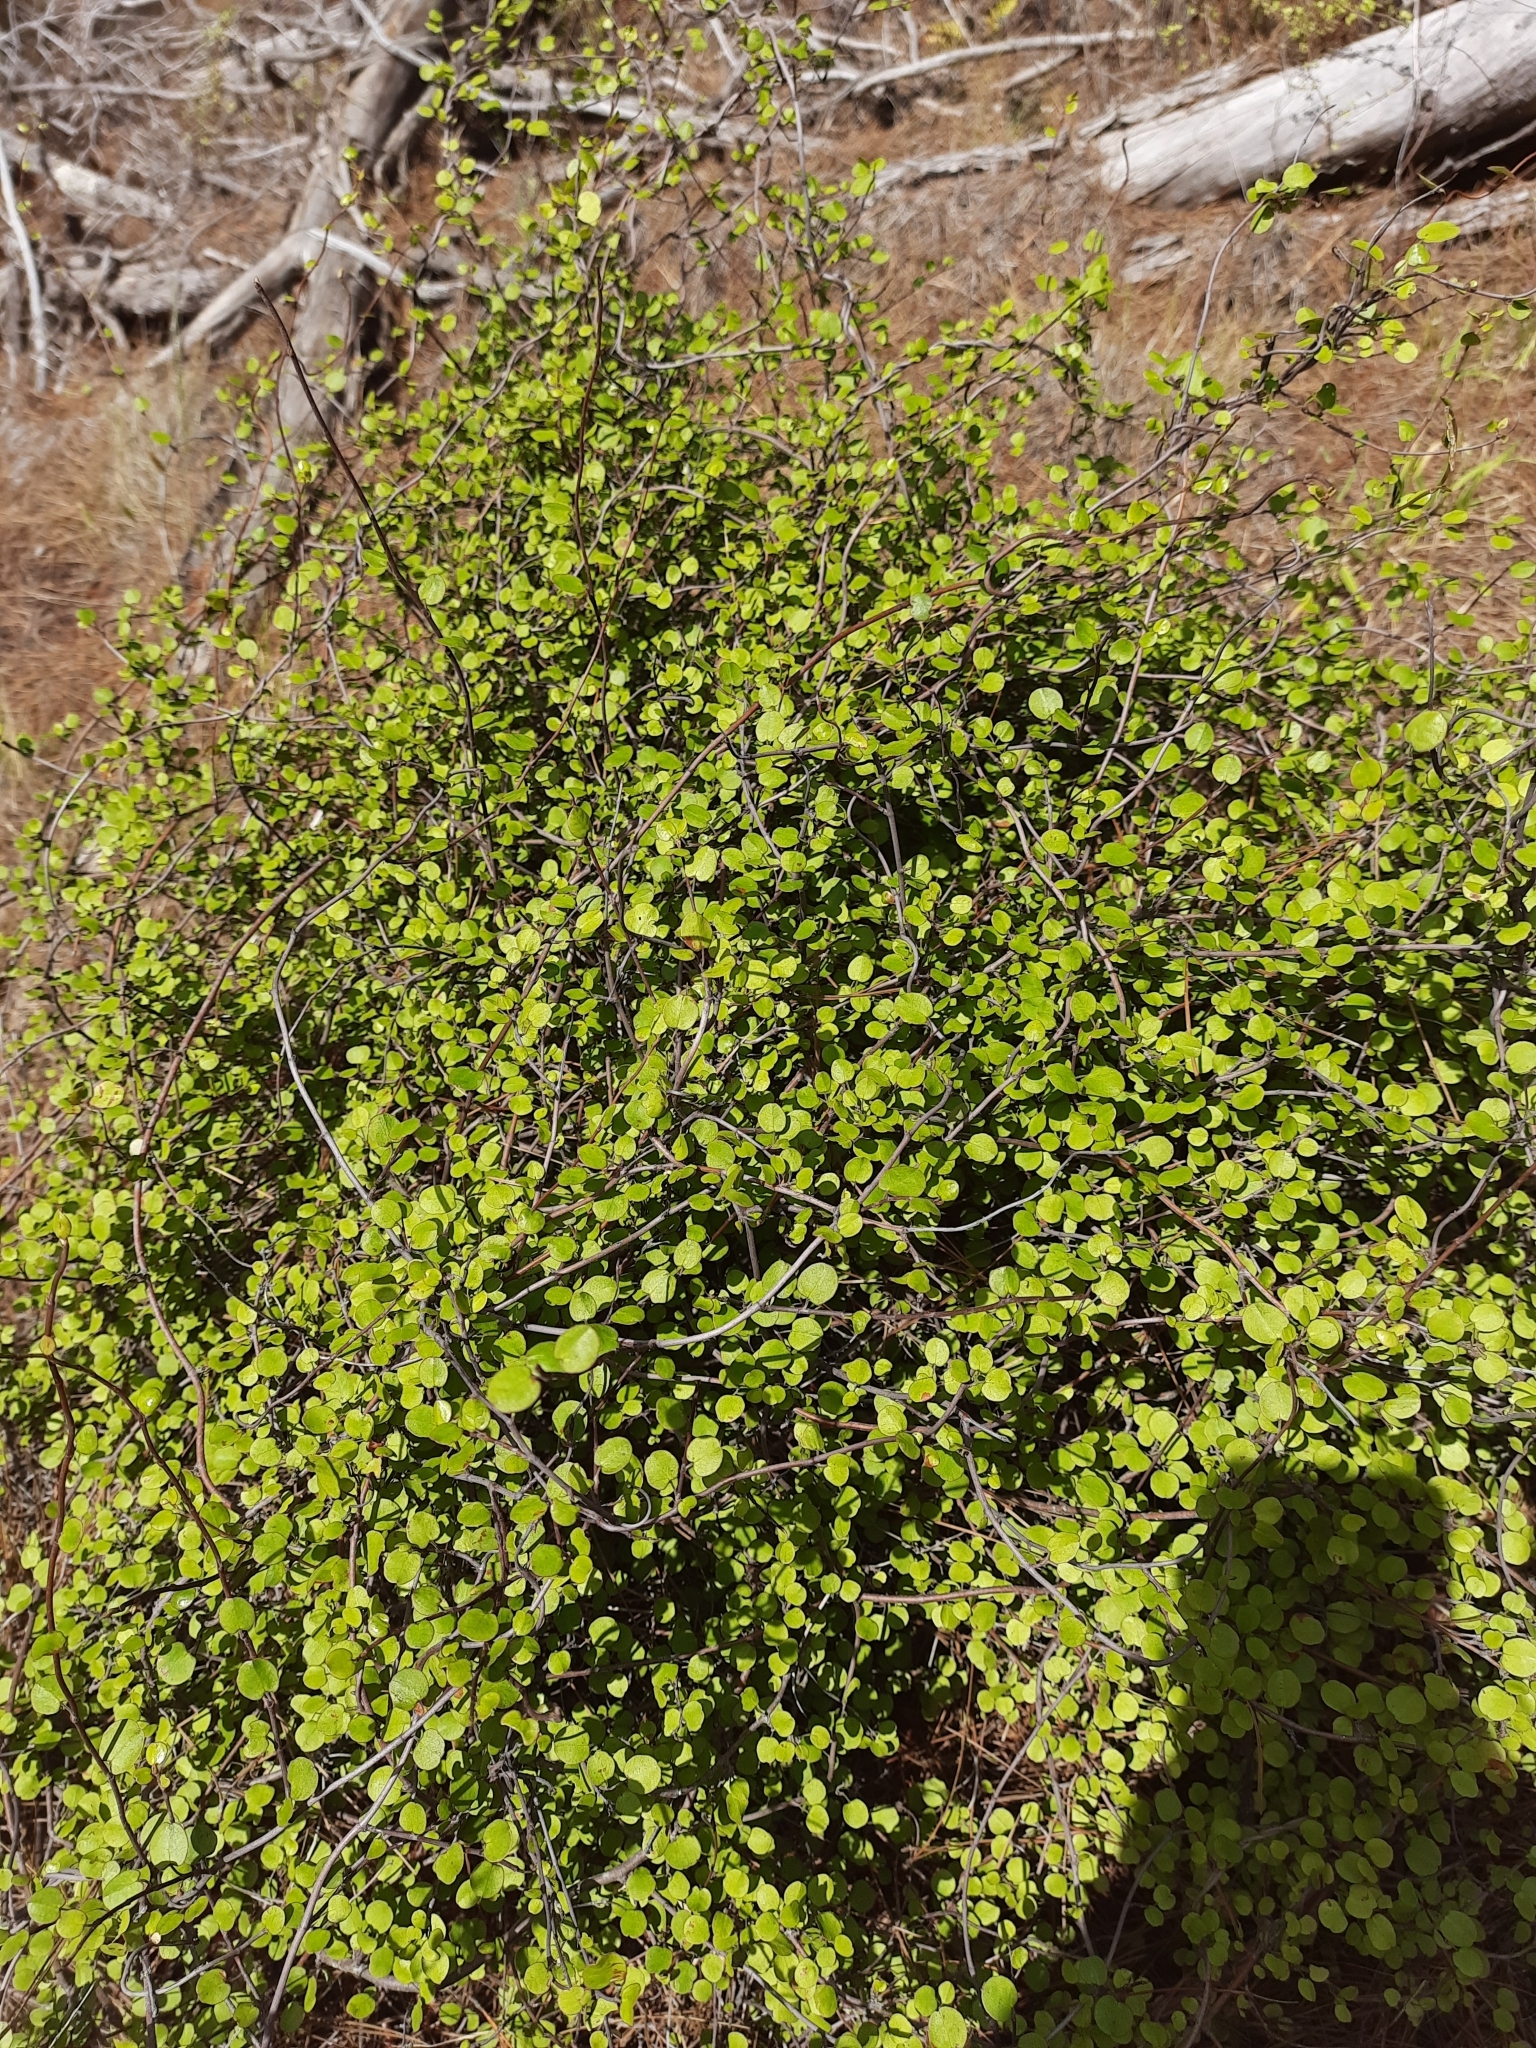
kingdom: Plantae
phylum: Tracheophyta
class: Magnoliopsida
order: Caryophyllales
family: Polygonaceae
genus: Muehlenbeckia
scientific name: Muehlenbeckia complexa
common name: Wireplant
